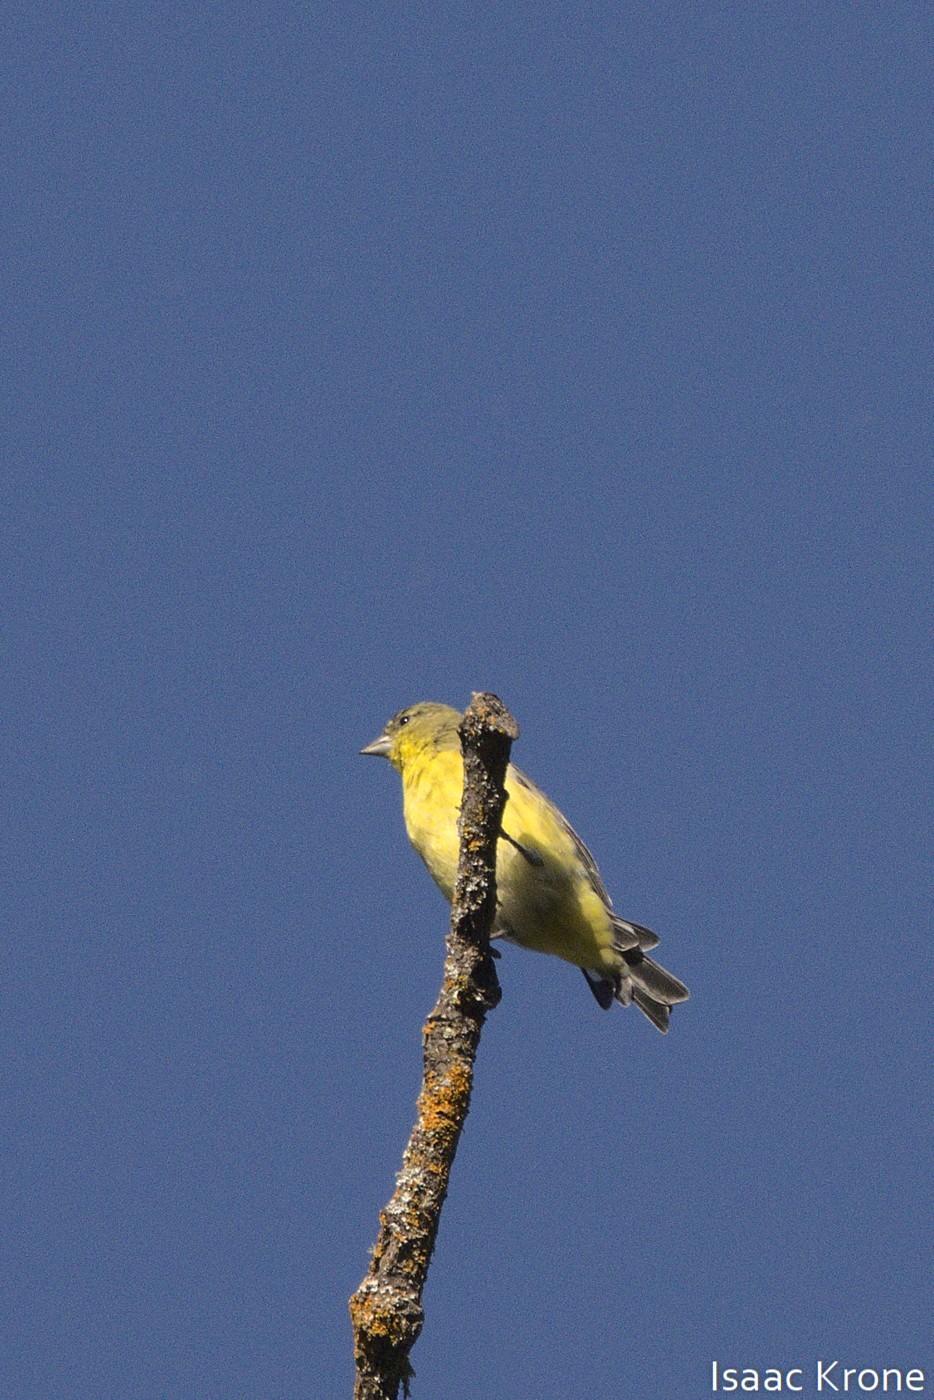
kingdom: Animalia
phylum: Chordata
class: Aves
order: Passeriformes
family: Fringillidae
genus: Spinus
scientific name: Spinus psaltria
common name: Lesser goldfinch
